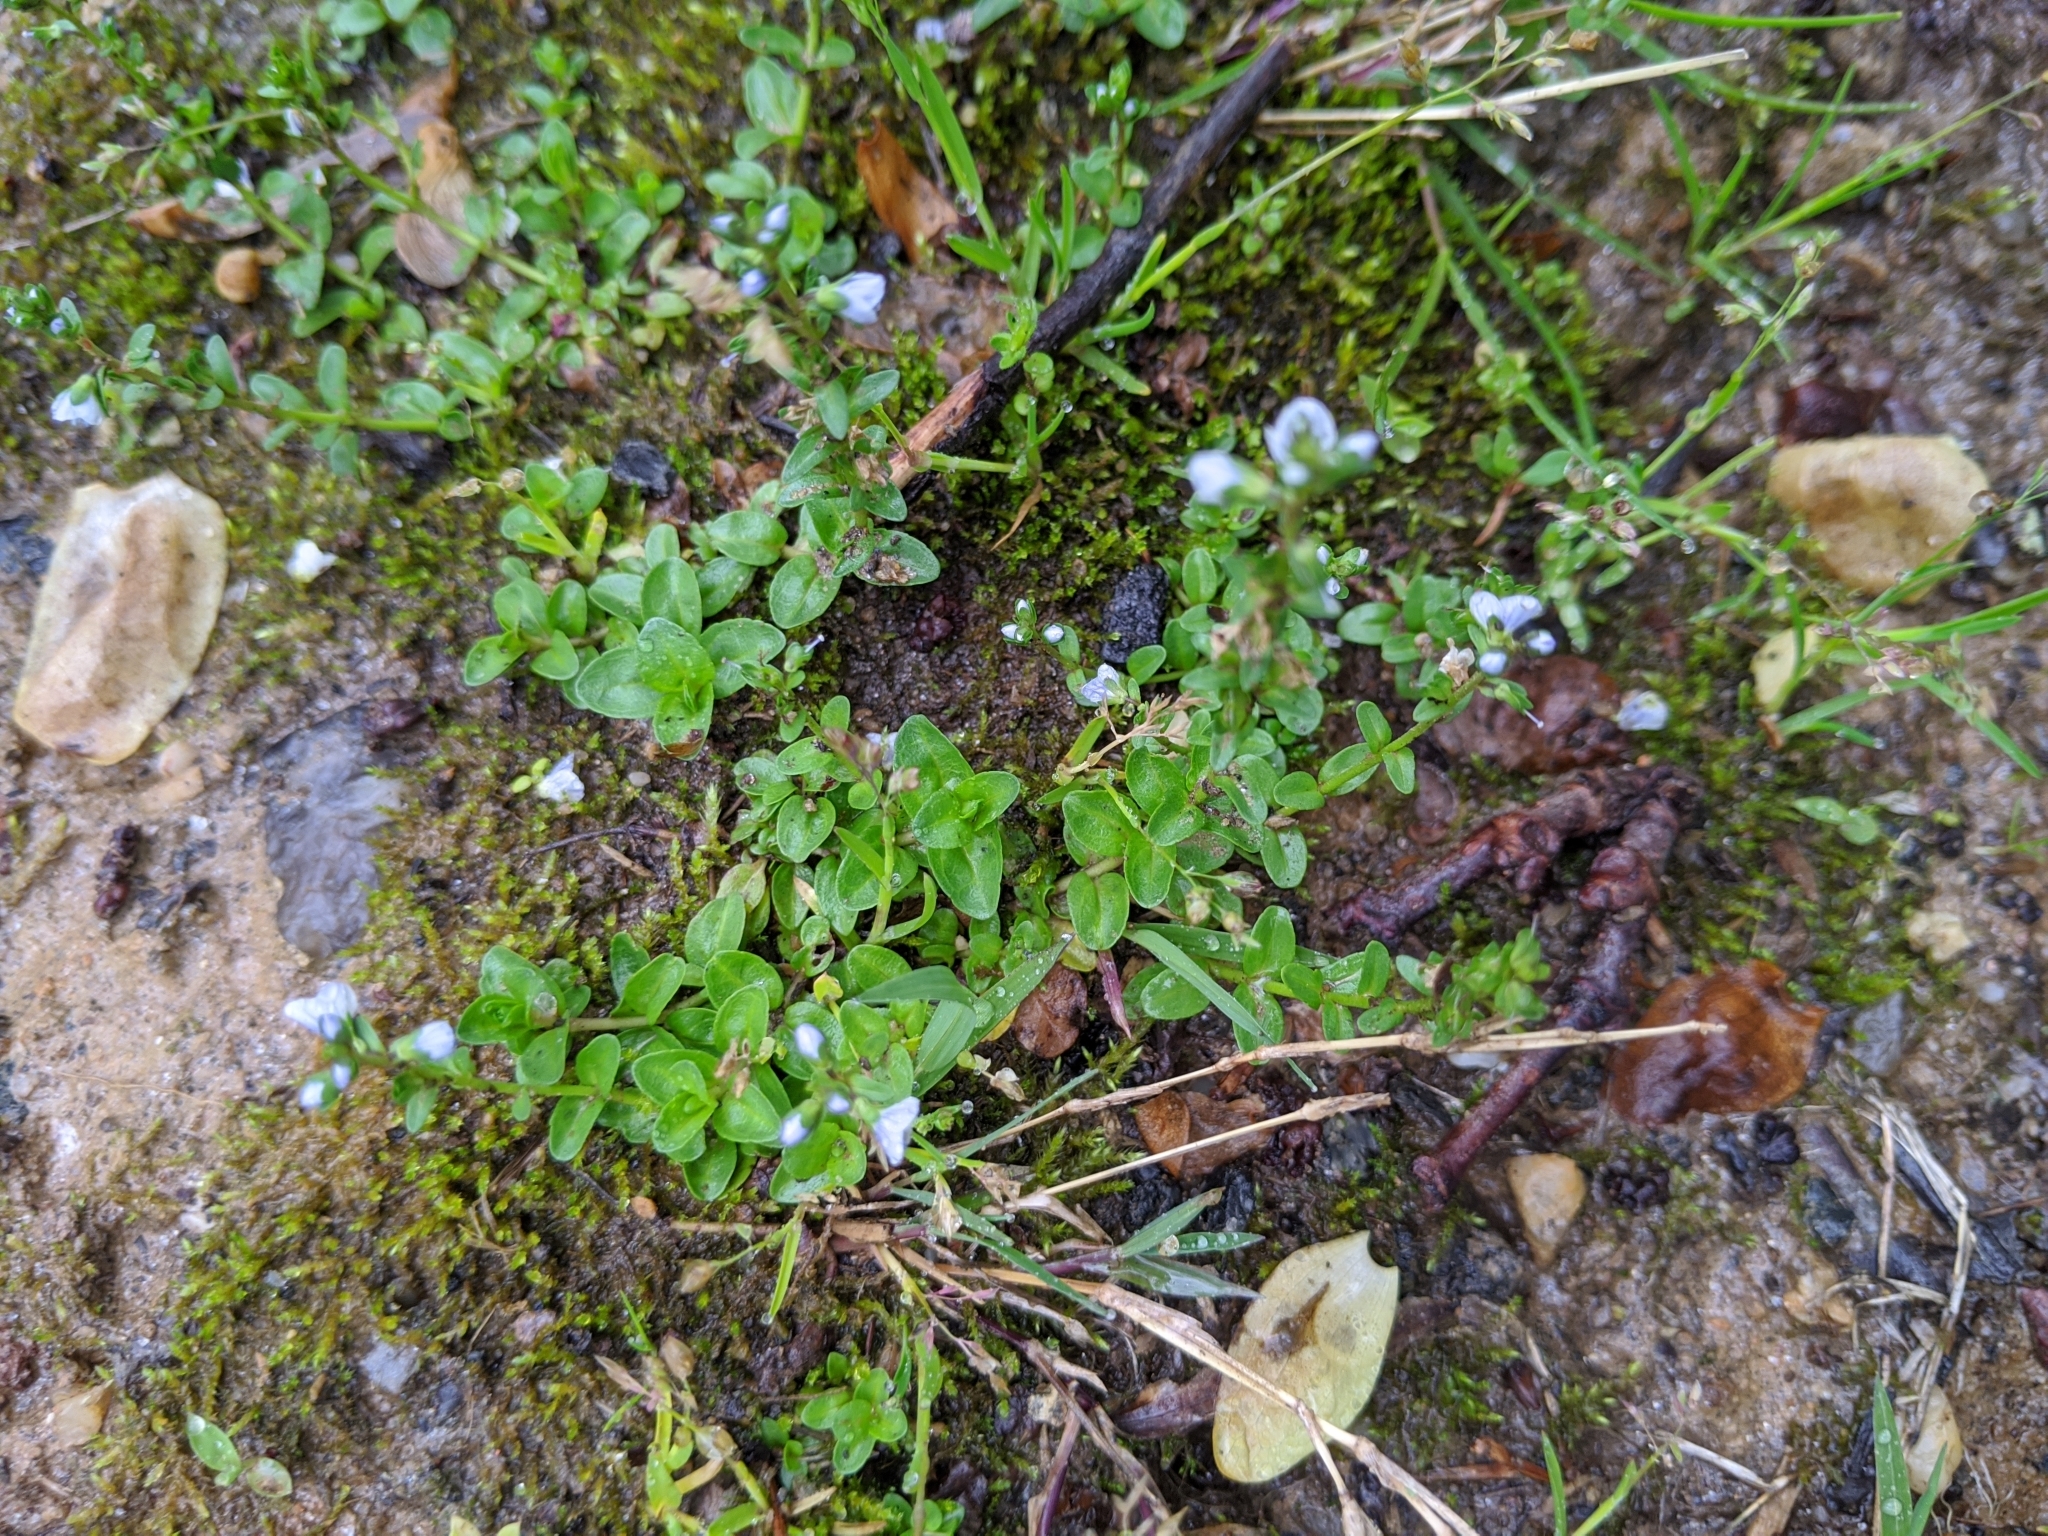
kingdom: Plantae
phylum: Tracheophyta
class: Magnoliopsida
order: Lamiales
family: Plantaginaceae
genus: Veronica
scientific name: Veronica serpyllifolia
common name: Thyme-leaved speedwell
